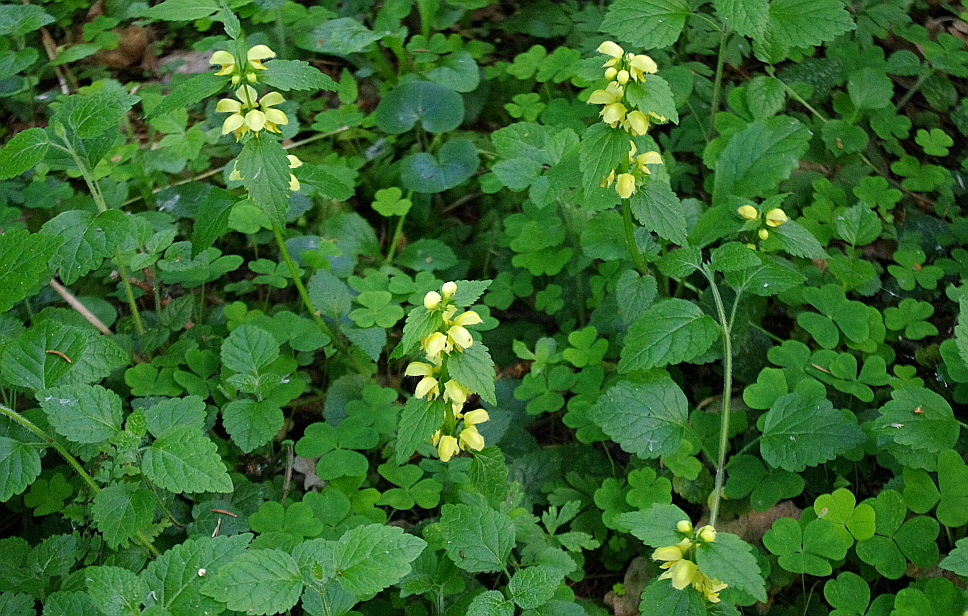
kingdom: Plantae
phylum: Tracheophyta
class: Magnoliopsida
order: Lamiales
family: Lamiaceae
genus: Lamium
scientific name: Lamium galeobdolon
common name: Yellow archangel
